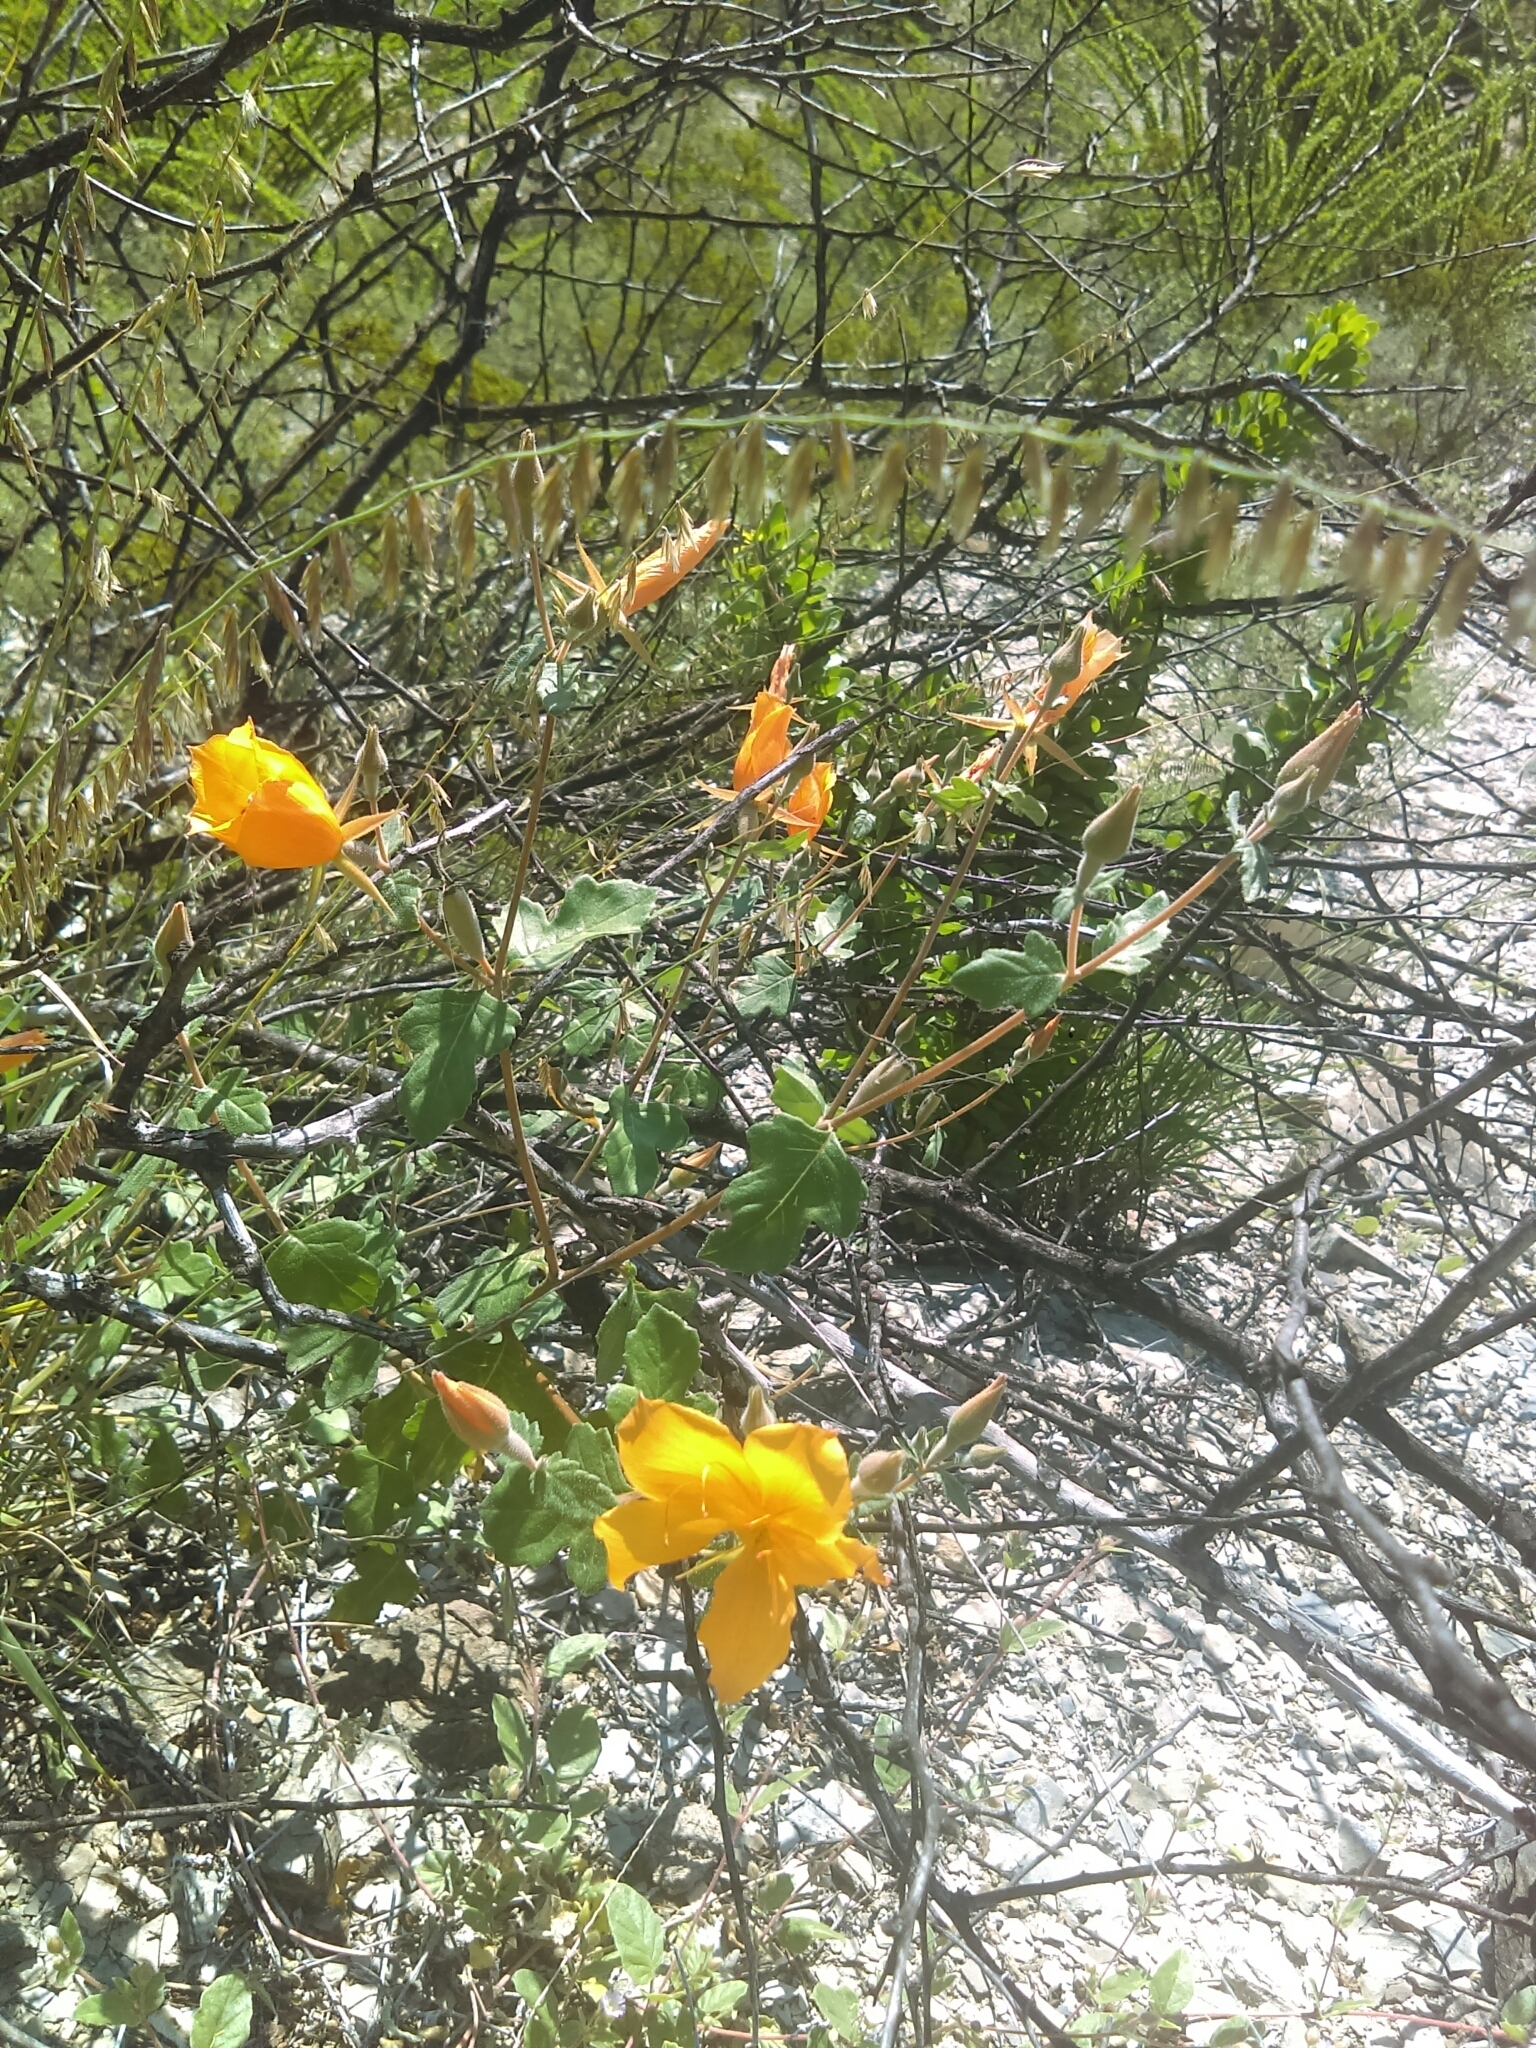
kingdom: Plantae
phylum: Tracheophyta
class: Magnoliopsida
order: Cornales
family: Loasaceae
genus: Mentzelia
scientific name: Mentzelia hispida
